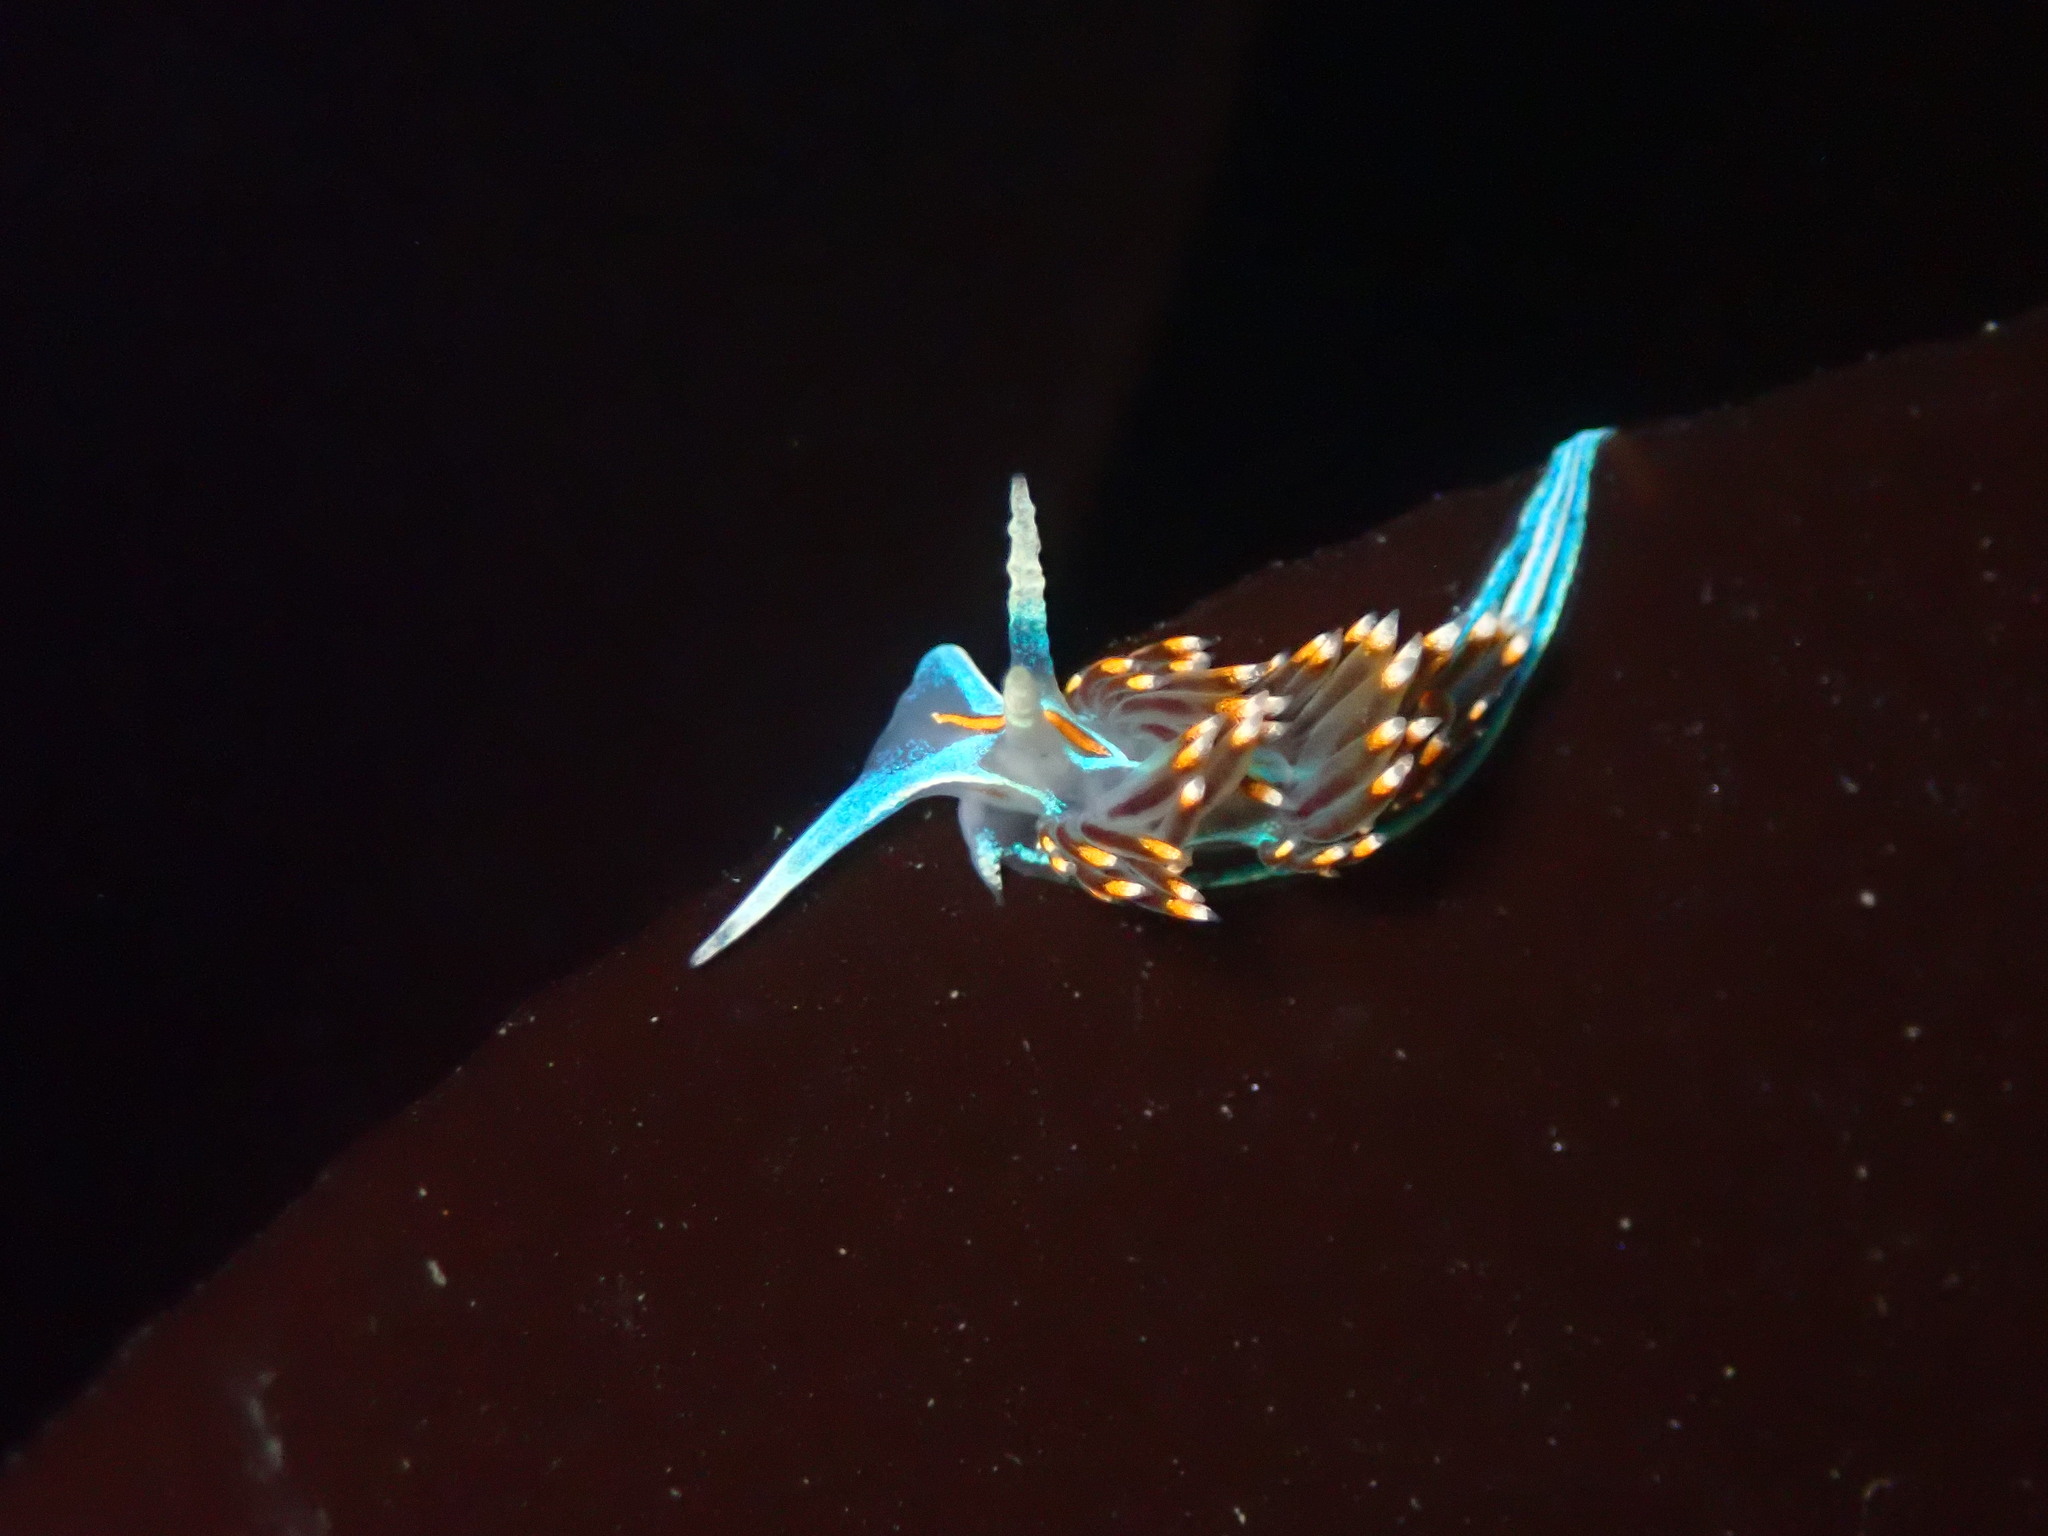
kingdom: Animalia
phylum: Mollusca
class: Gastropoda
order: Nudibranchia
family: Myrrhinidae
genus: Hermissenda
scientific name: Hermissenda opalescens
